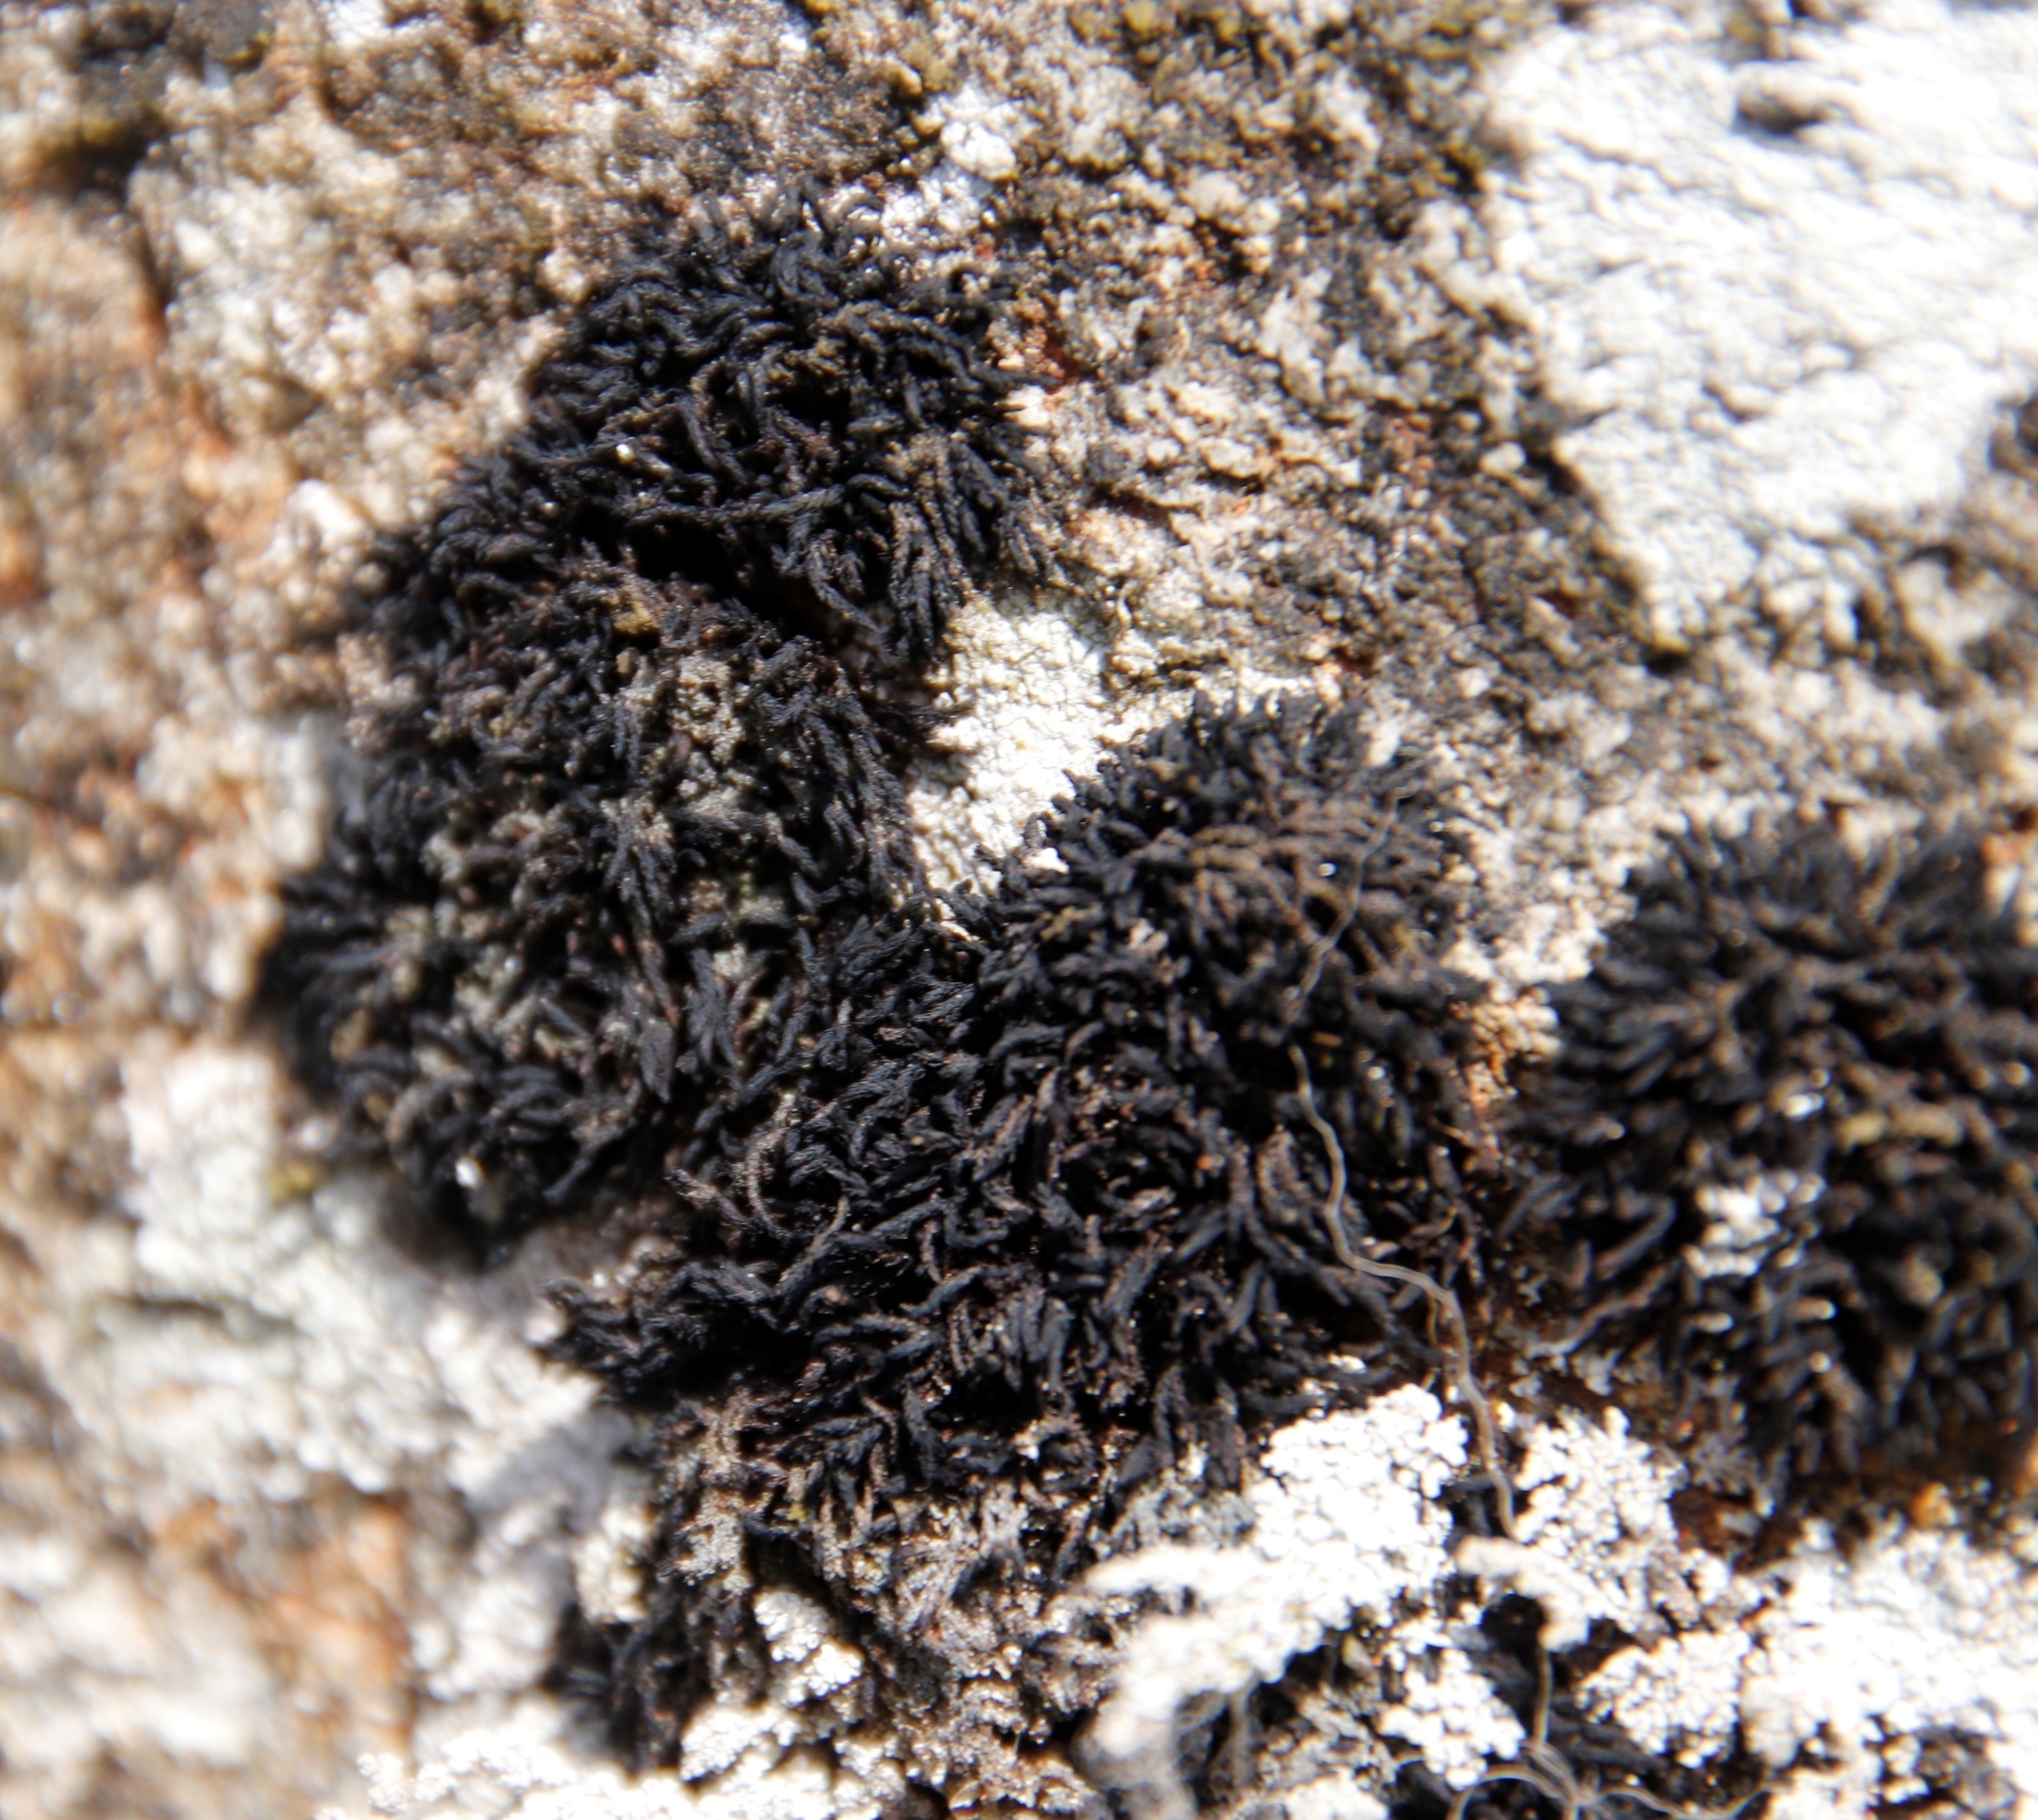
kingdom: Plantae
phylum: Bryophyta
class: Andreaeopsida
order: Andreaeales
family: Andreaeaceae
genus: Andreaea
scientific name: Andreaea rupestris
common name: Black rock moss
